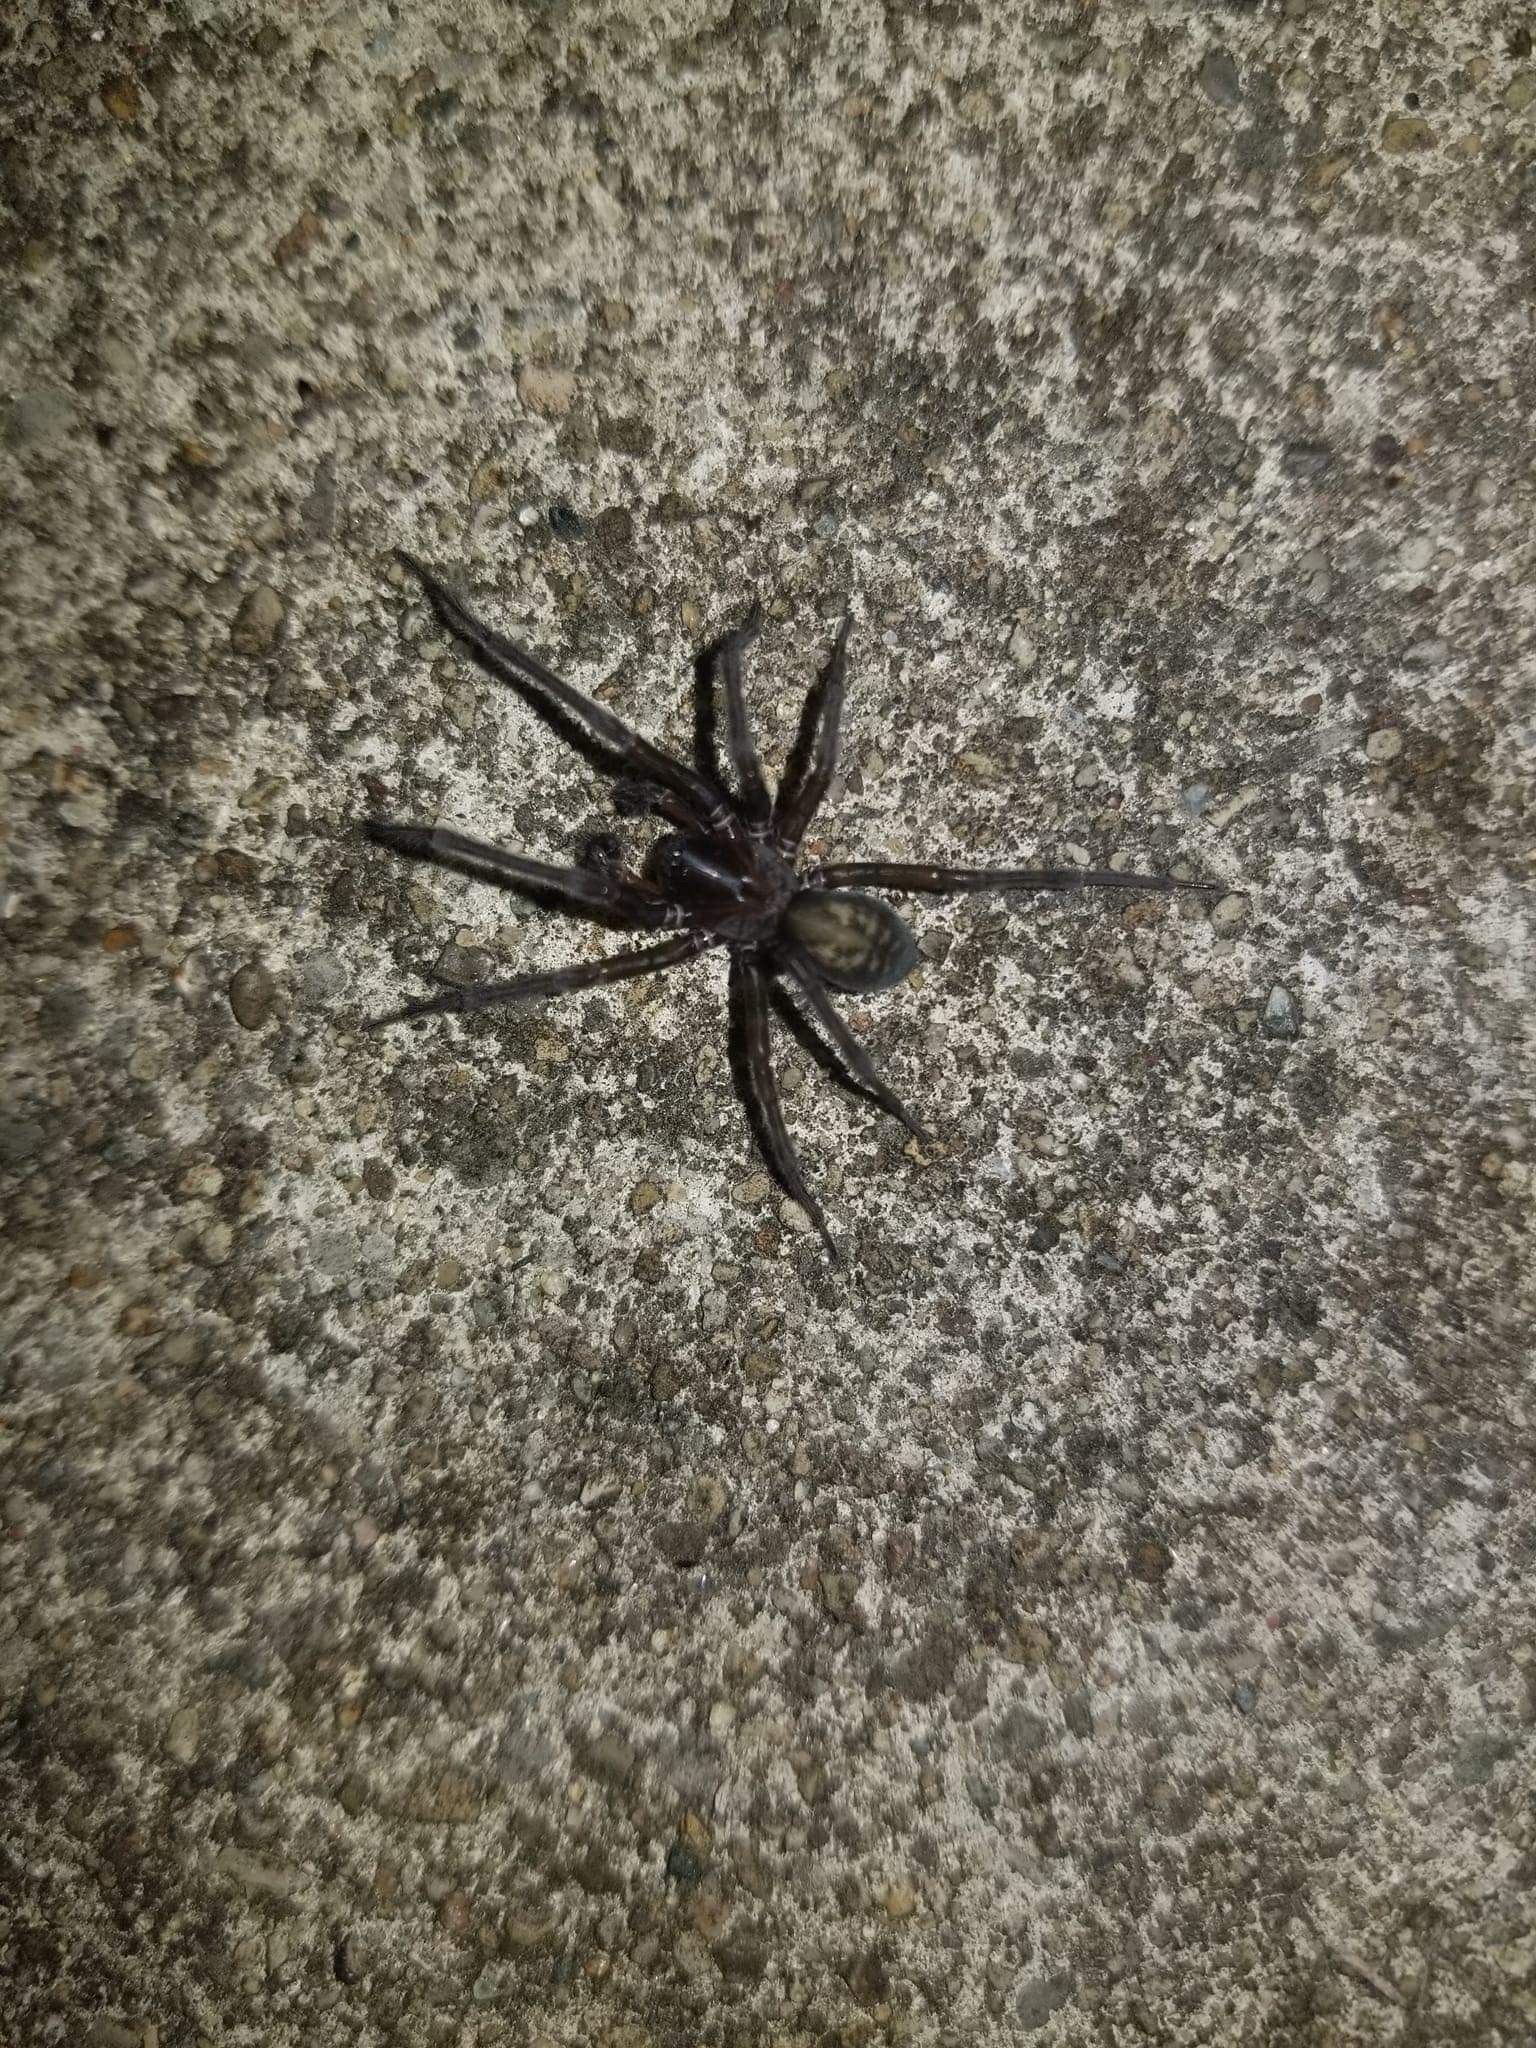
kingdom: Animalia
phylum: Arthropoda
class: Arachnida
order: Araneae
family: Amaurobiidae
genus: Amaurobius
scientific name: Amaurobius ferox
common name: Black laceweaver
